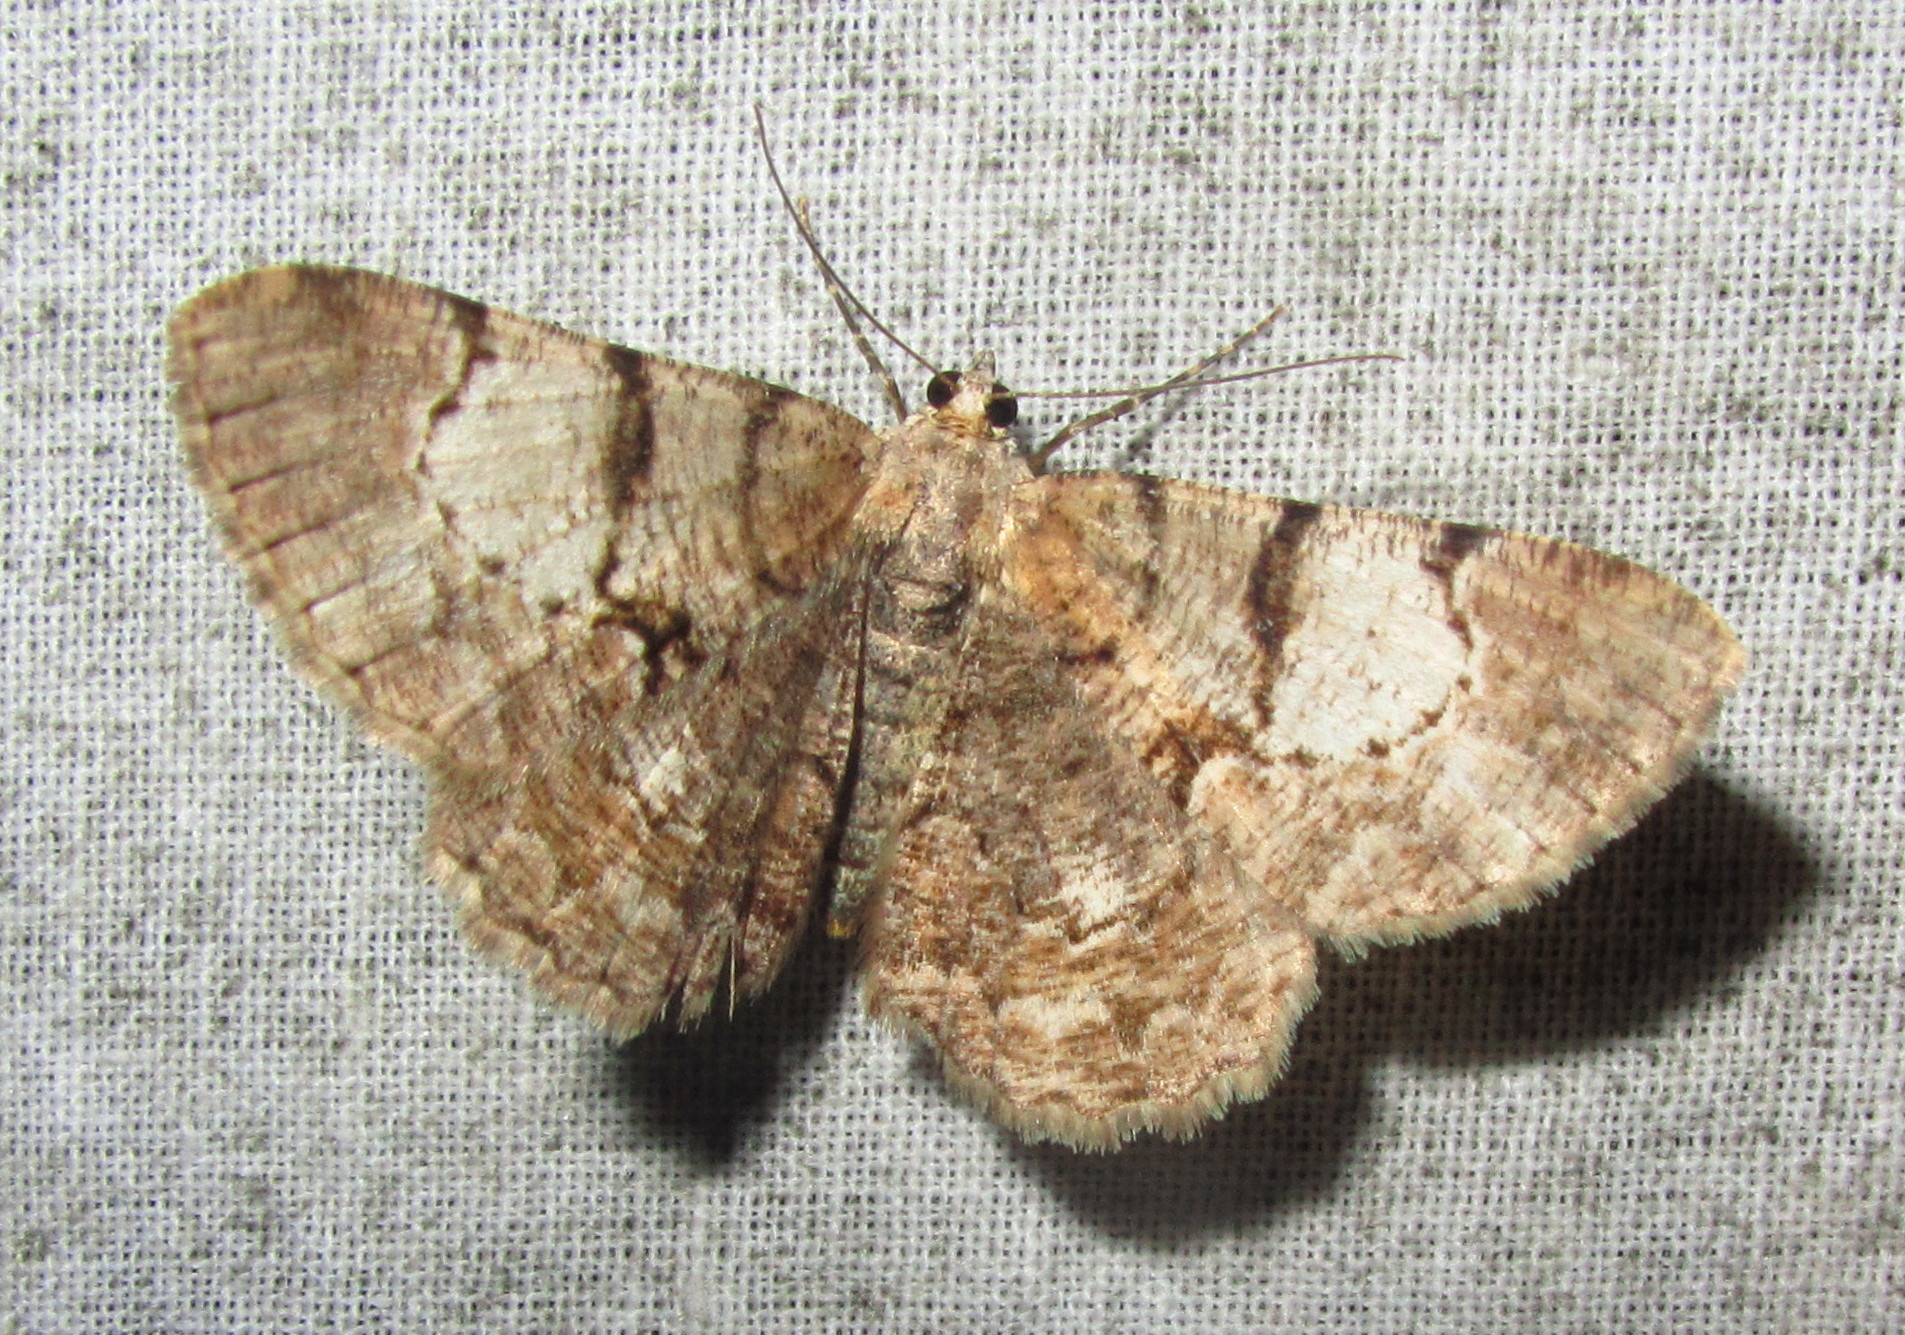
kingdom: Animalia
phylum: Arthropoda
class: Insecta
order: Lepidoptera
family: Geometridae
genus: Psilalcis
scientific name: Psilalcis pallidaria
